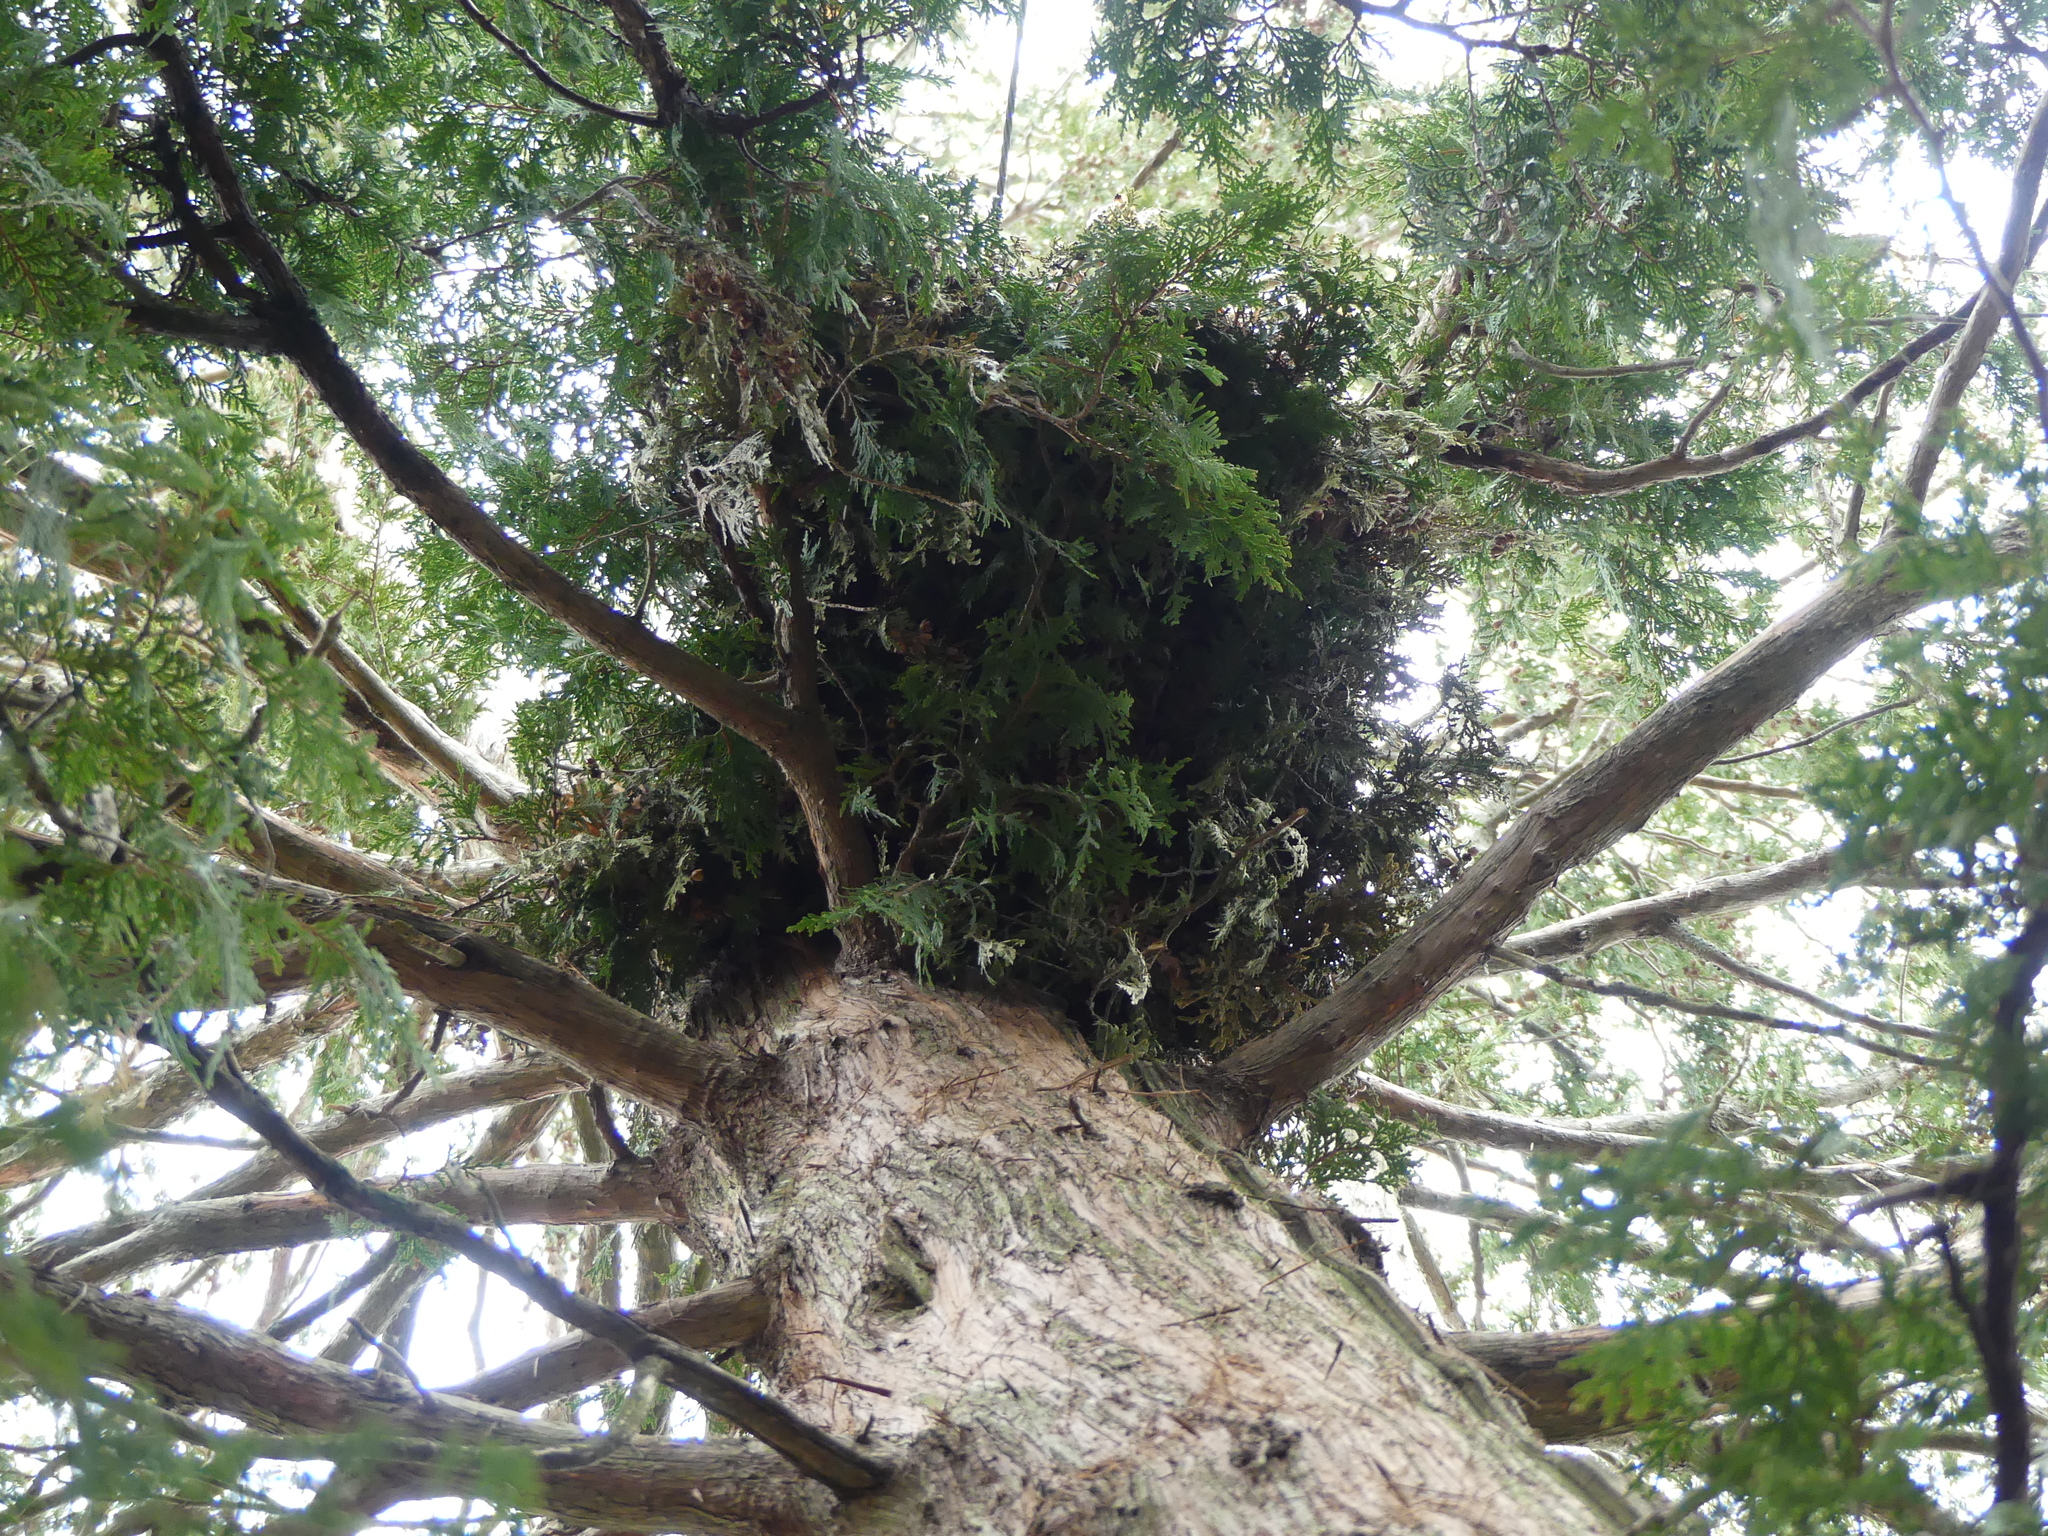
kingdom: Animalia
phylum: Chordata
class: Mammalia
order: Rodentia
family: Sciuridae
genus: Sciurus
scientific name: Sciurus carolinensis
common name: Eastern gray squirrel
